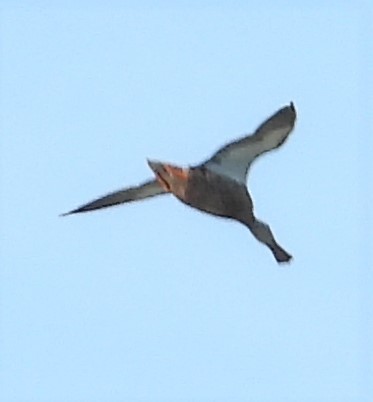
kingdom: Animalia
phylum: Chordata
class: Aves
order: Anseriformes
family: Anatidae
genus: Spatula
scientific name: Spatula clypeata
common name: Northern shoveler
